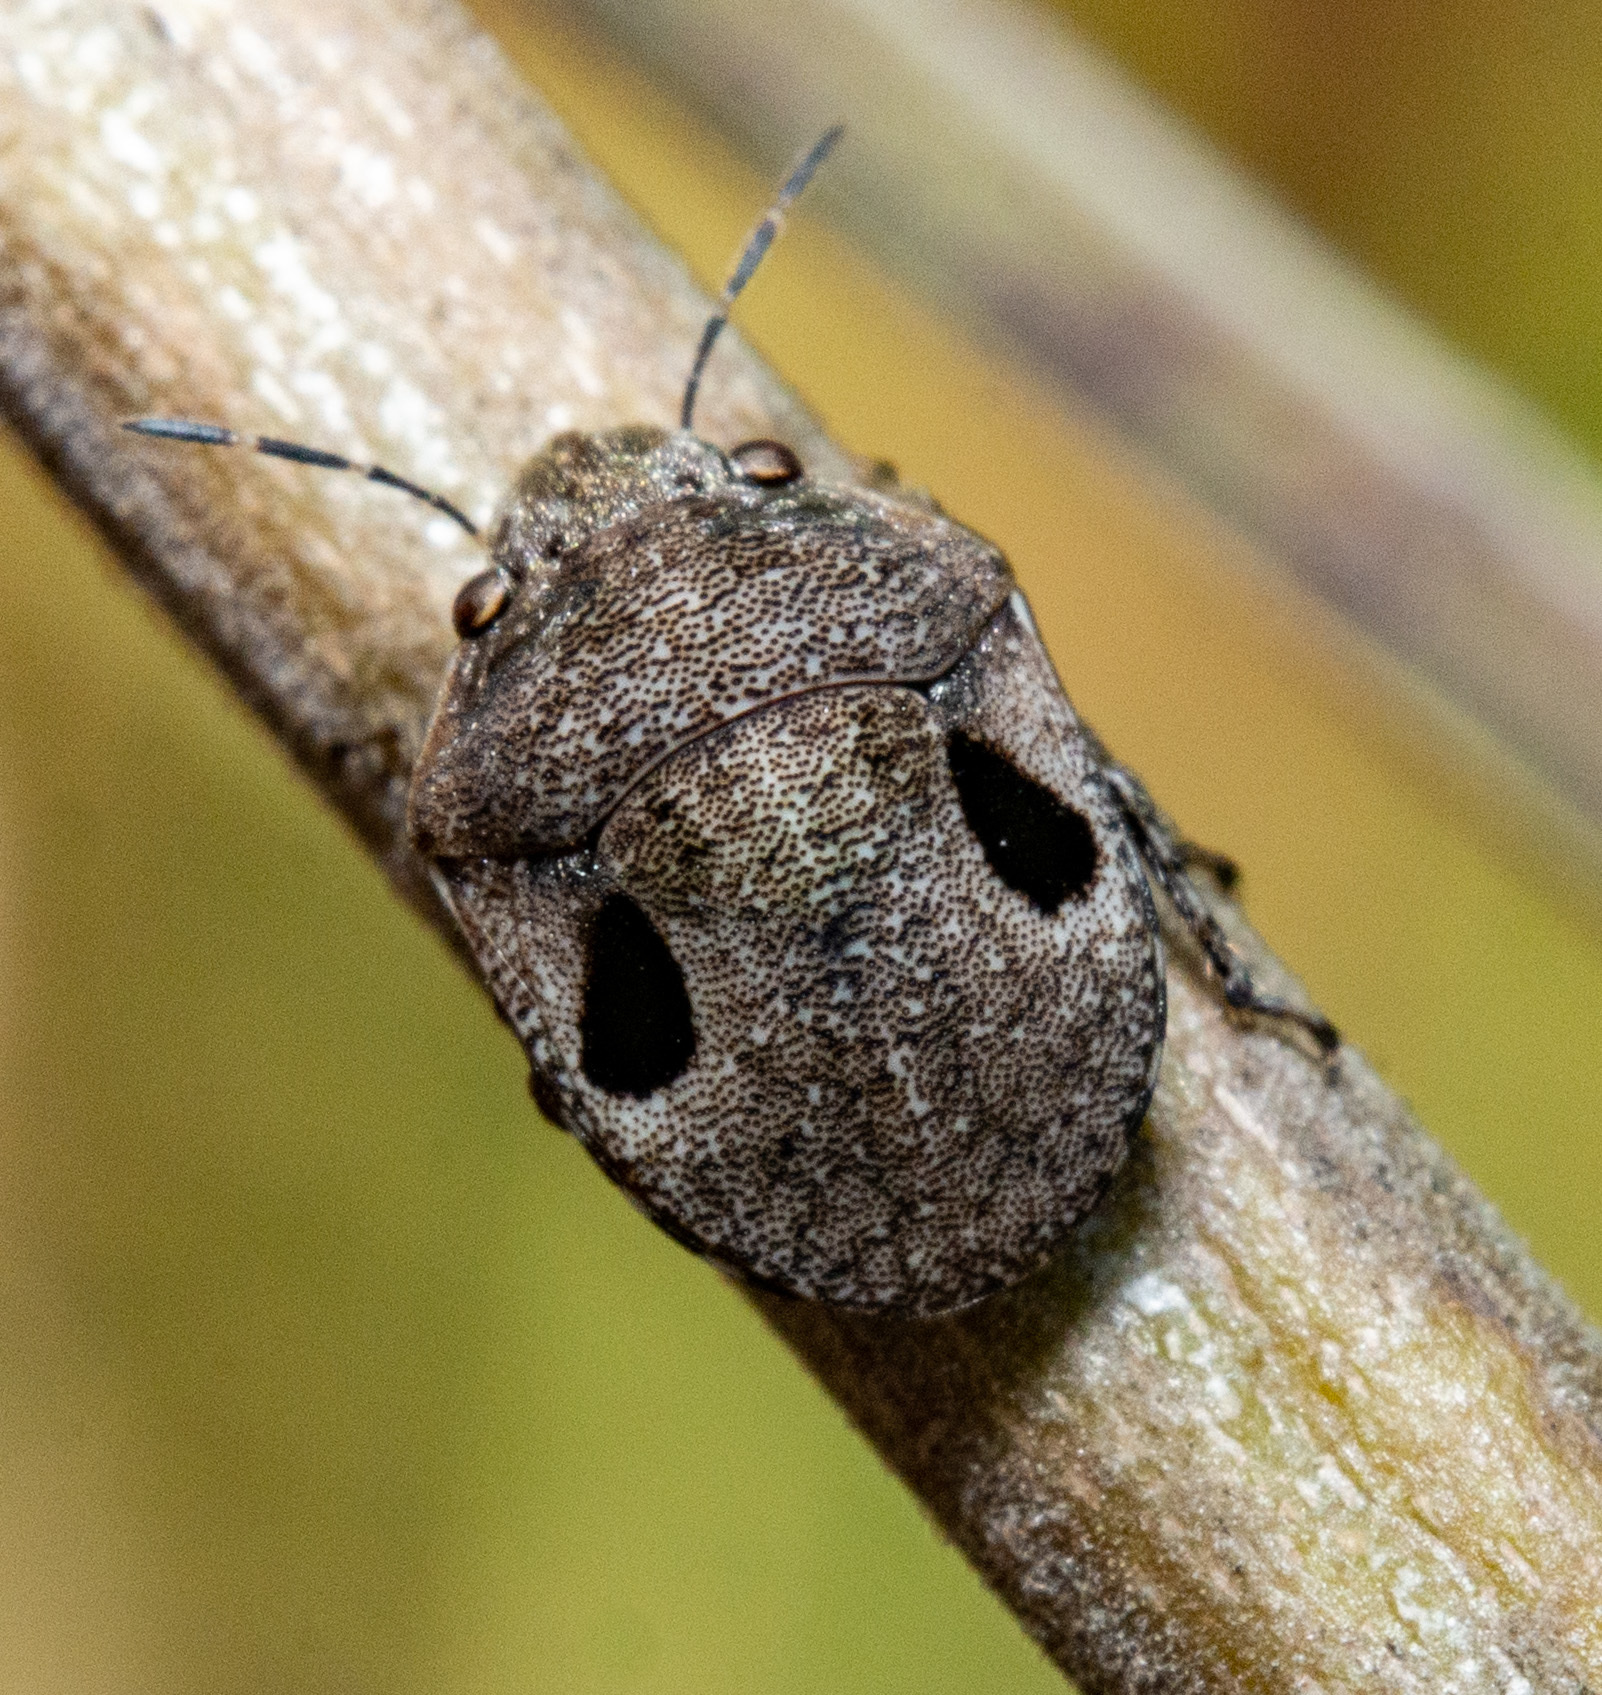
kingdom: Animalia
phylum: Arthropoda
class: Insecta
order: Hemiptera
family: Scutelleridae
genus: Sphyrocoris
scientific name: Sphyrocoris obliquus
